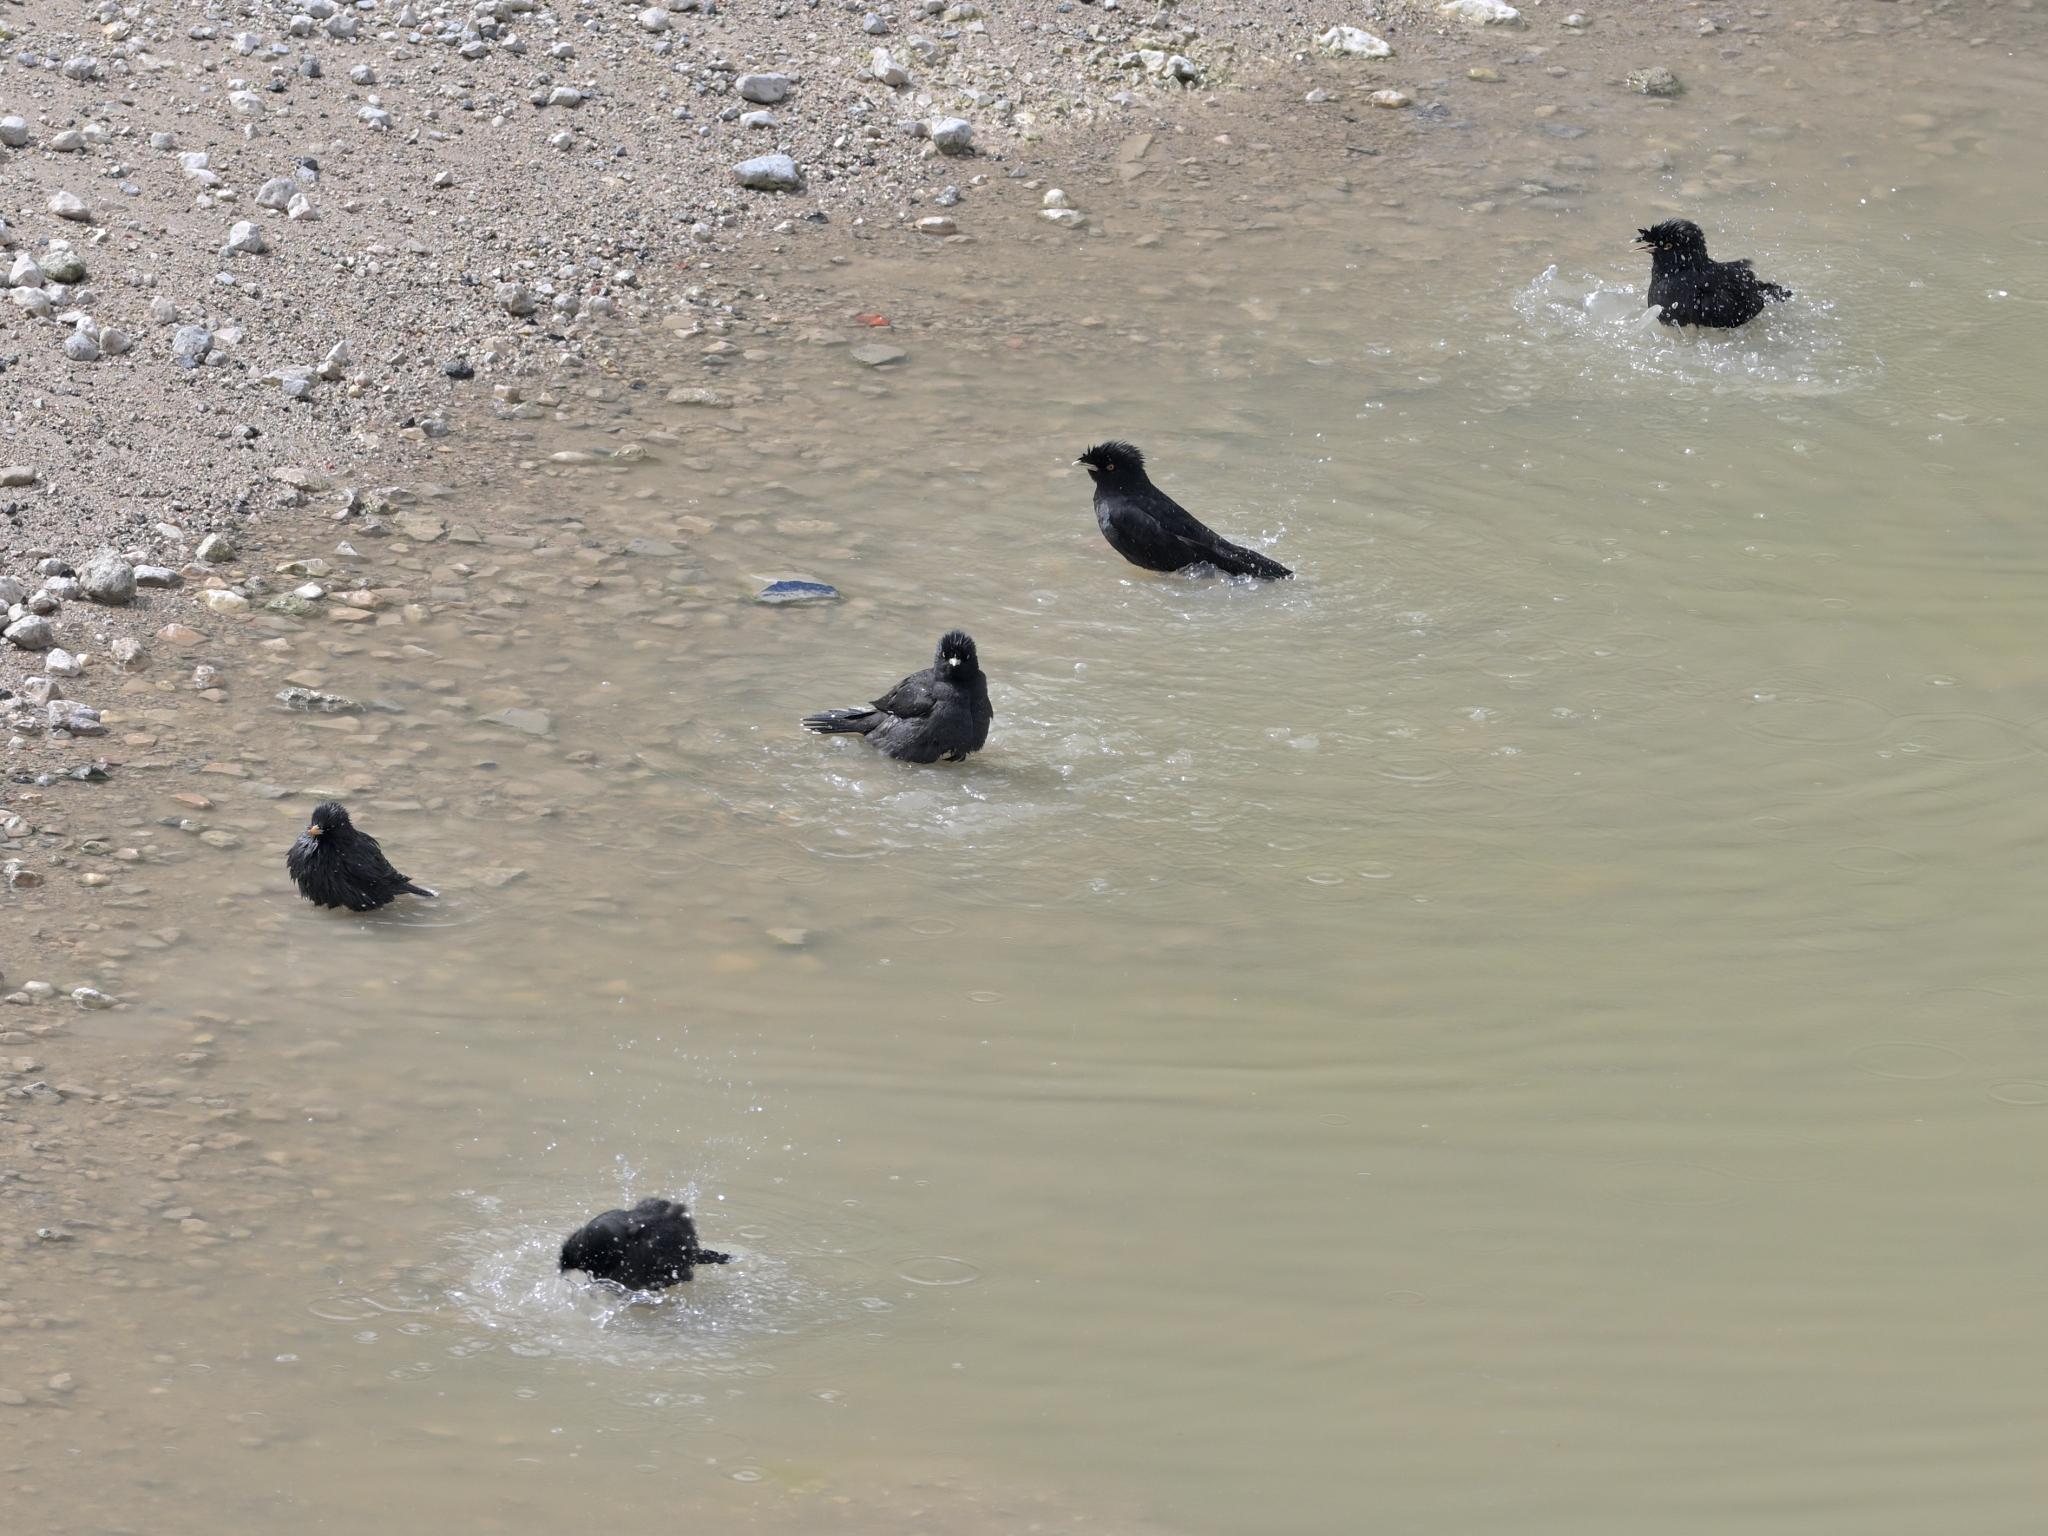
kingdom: Animalia
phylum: Chordata
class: Aves
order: Passeriformes
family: Sturnidae
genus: Acridotheres
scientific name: Acridotheres cristatellus
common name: Crested myna
